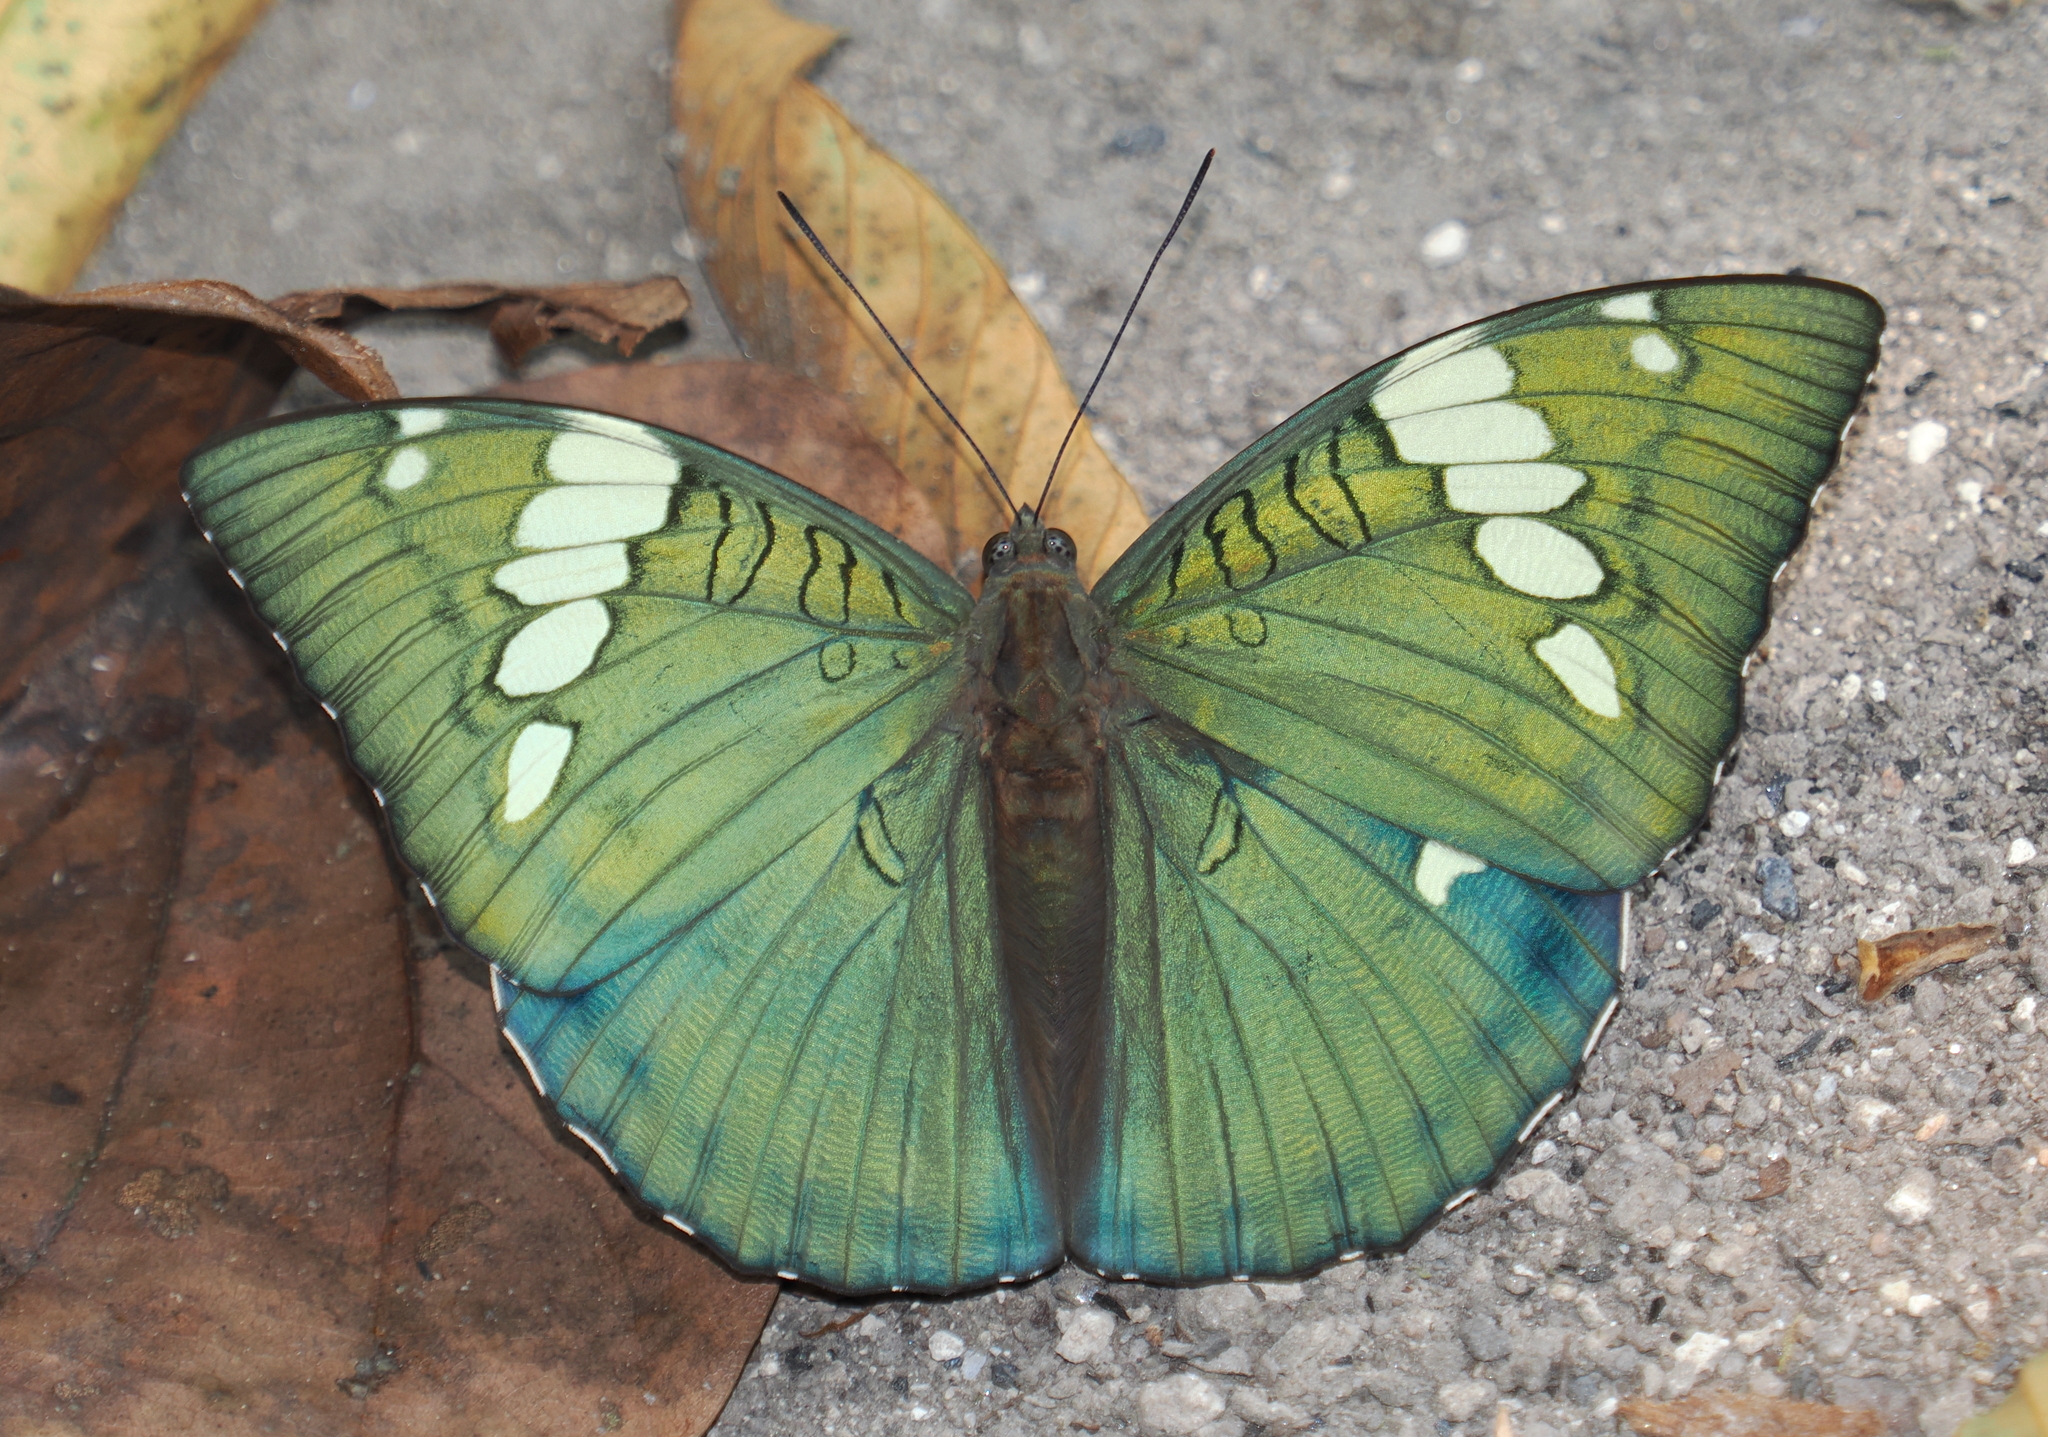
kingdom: Animalia
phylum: Arthropoda
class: Insecta
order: Lepidoptera
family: Nymphalidae
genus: Euthalia
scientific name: Euthalia patala
